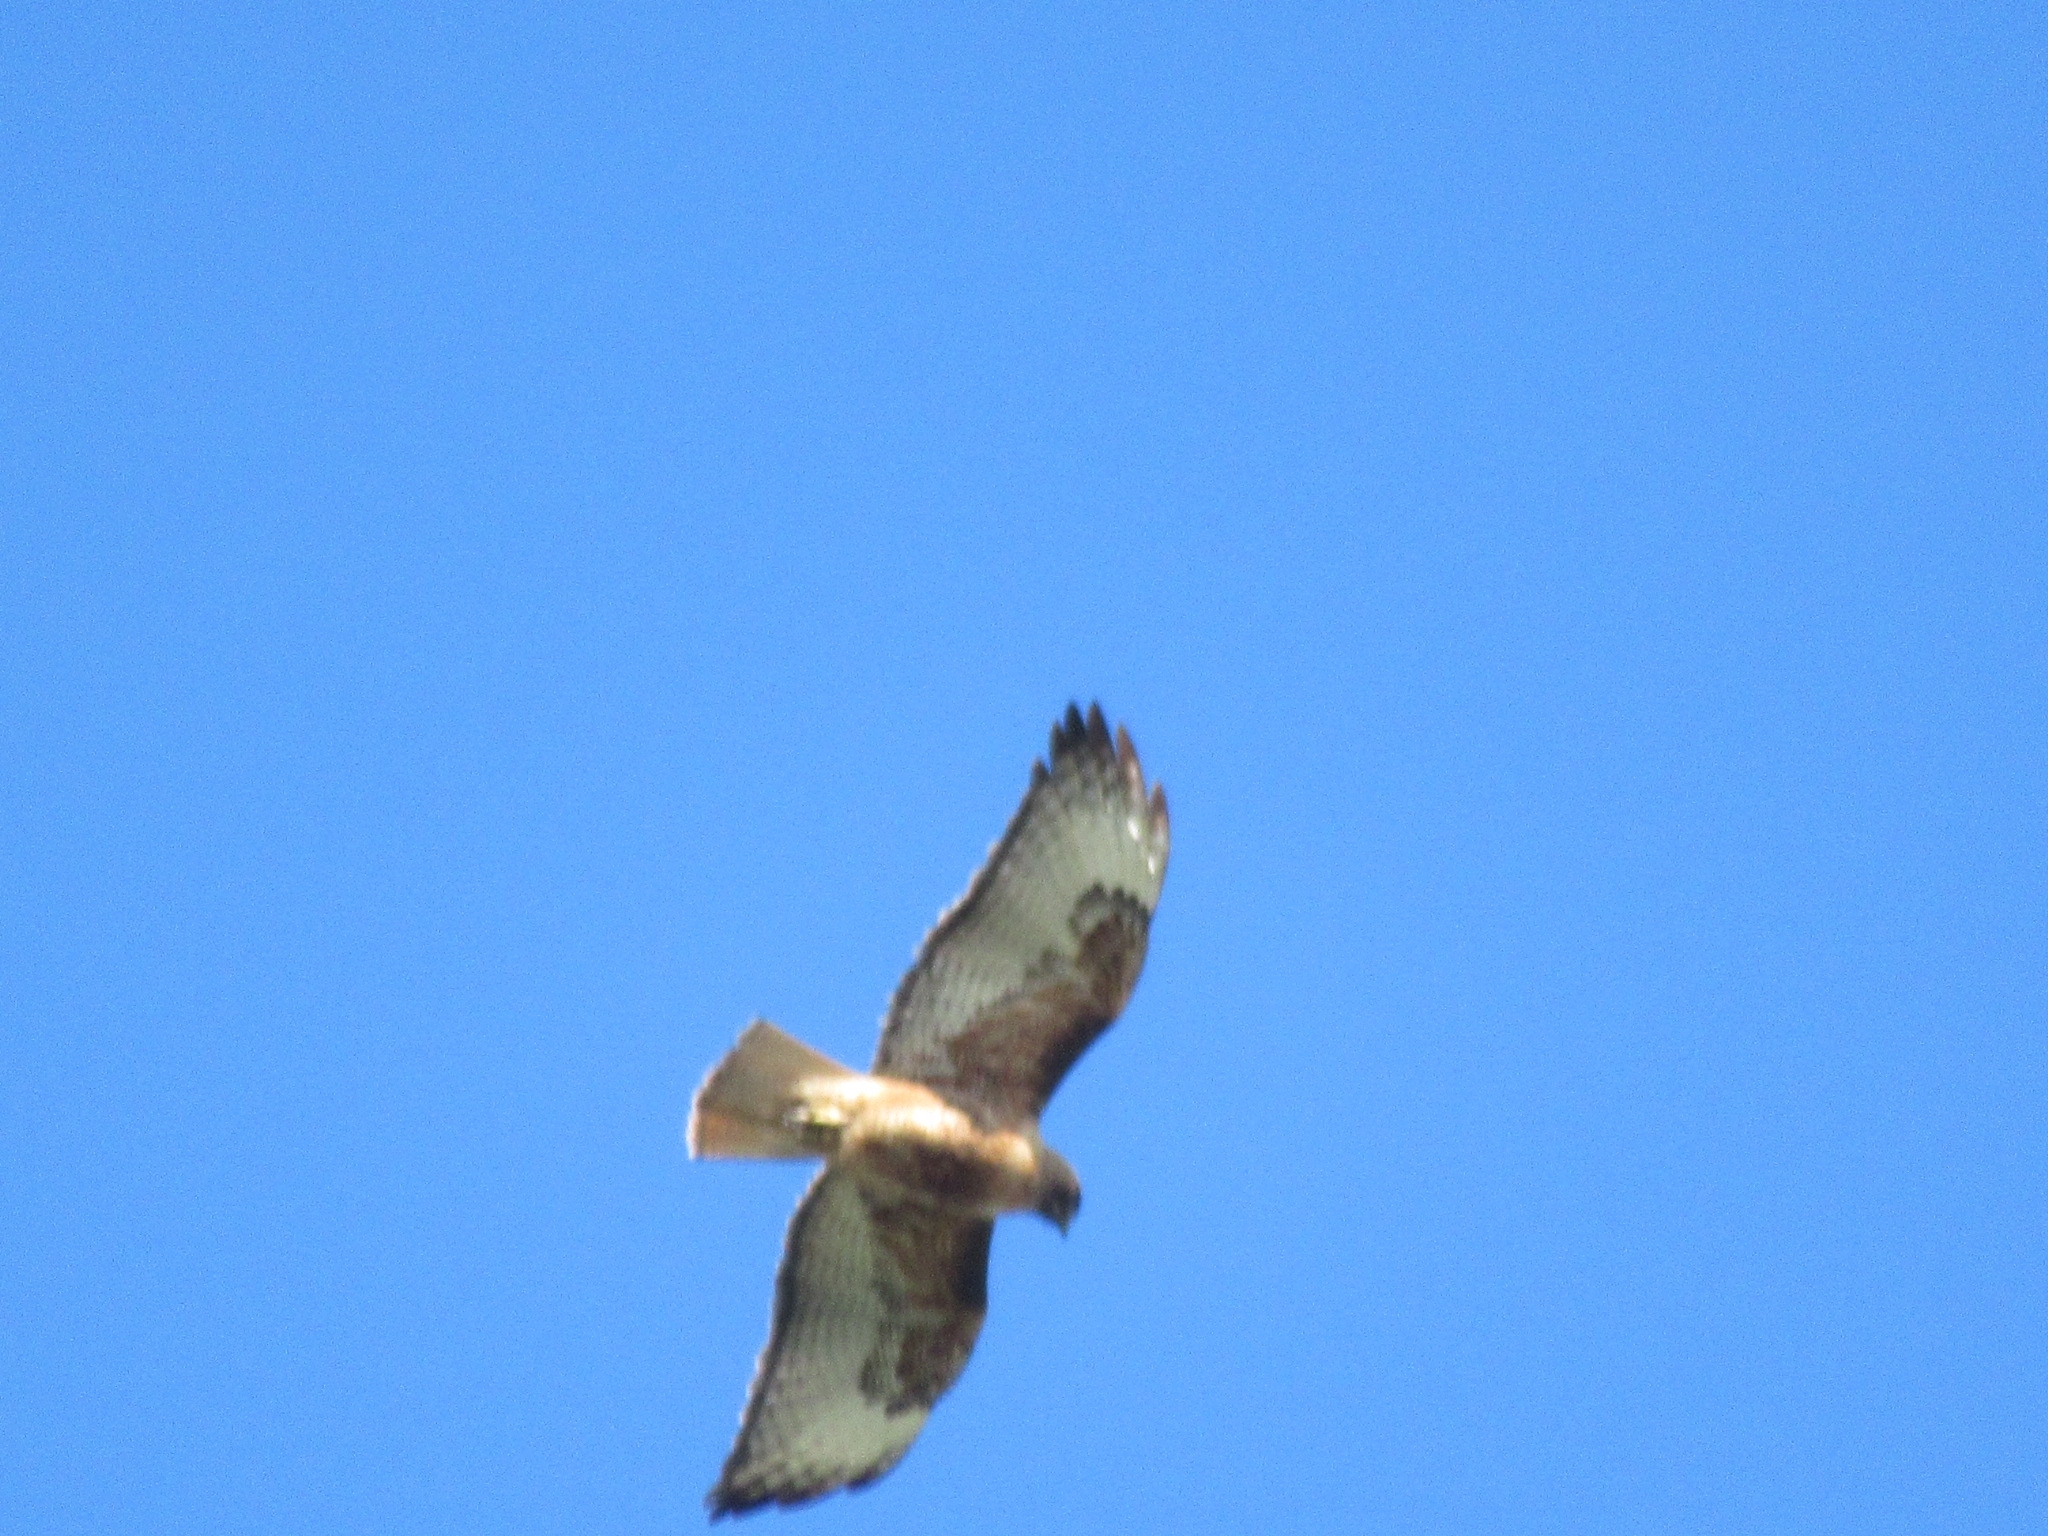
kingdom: Animalia
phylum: Chordata
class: Aves
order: Accipitriformes
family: Accipitridae
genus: Buteo
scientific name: Buteo jamaicensis
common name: Red-tailed hawk
